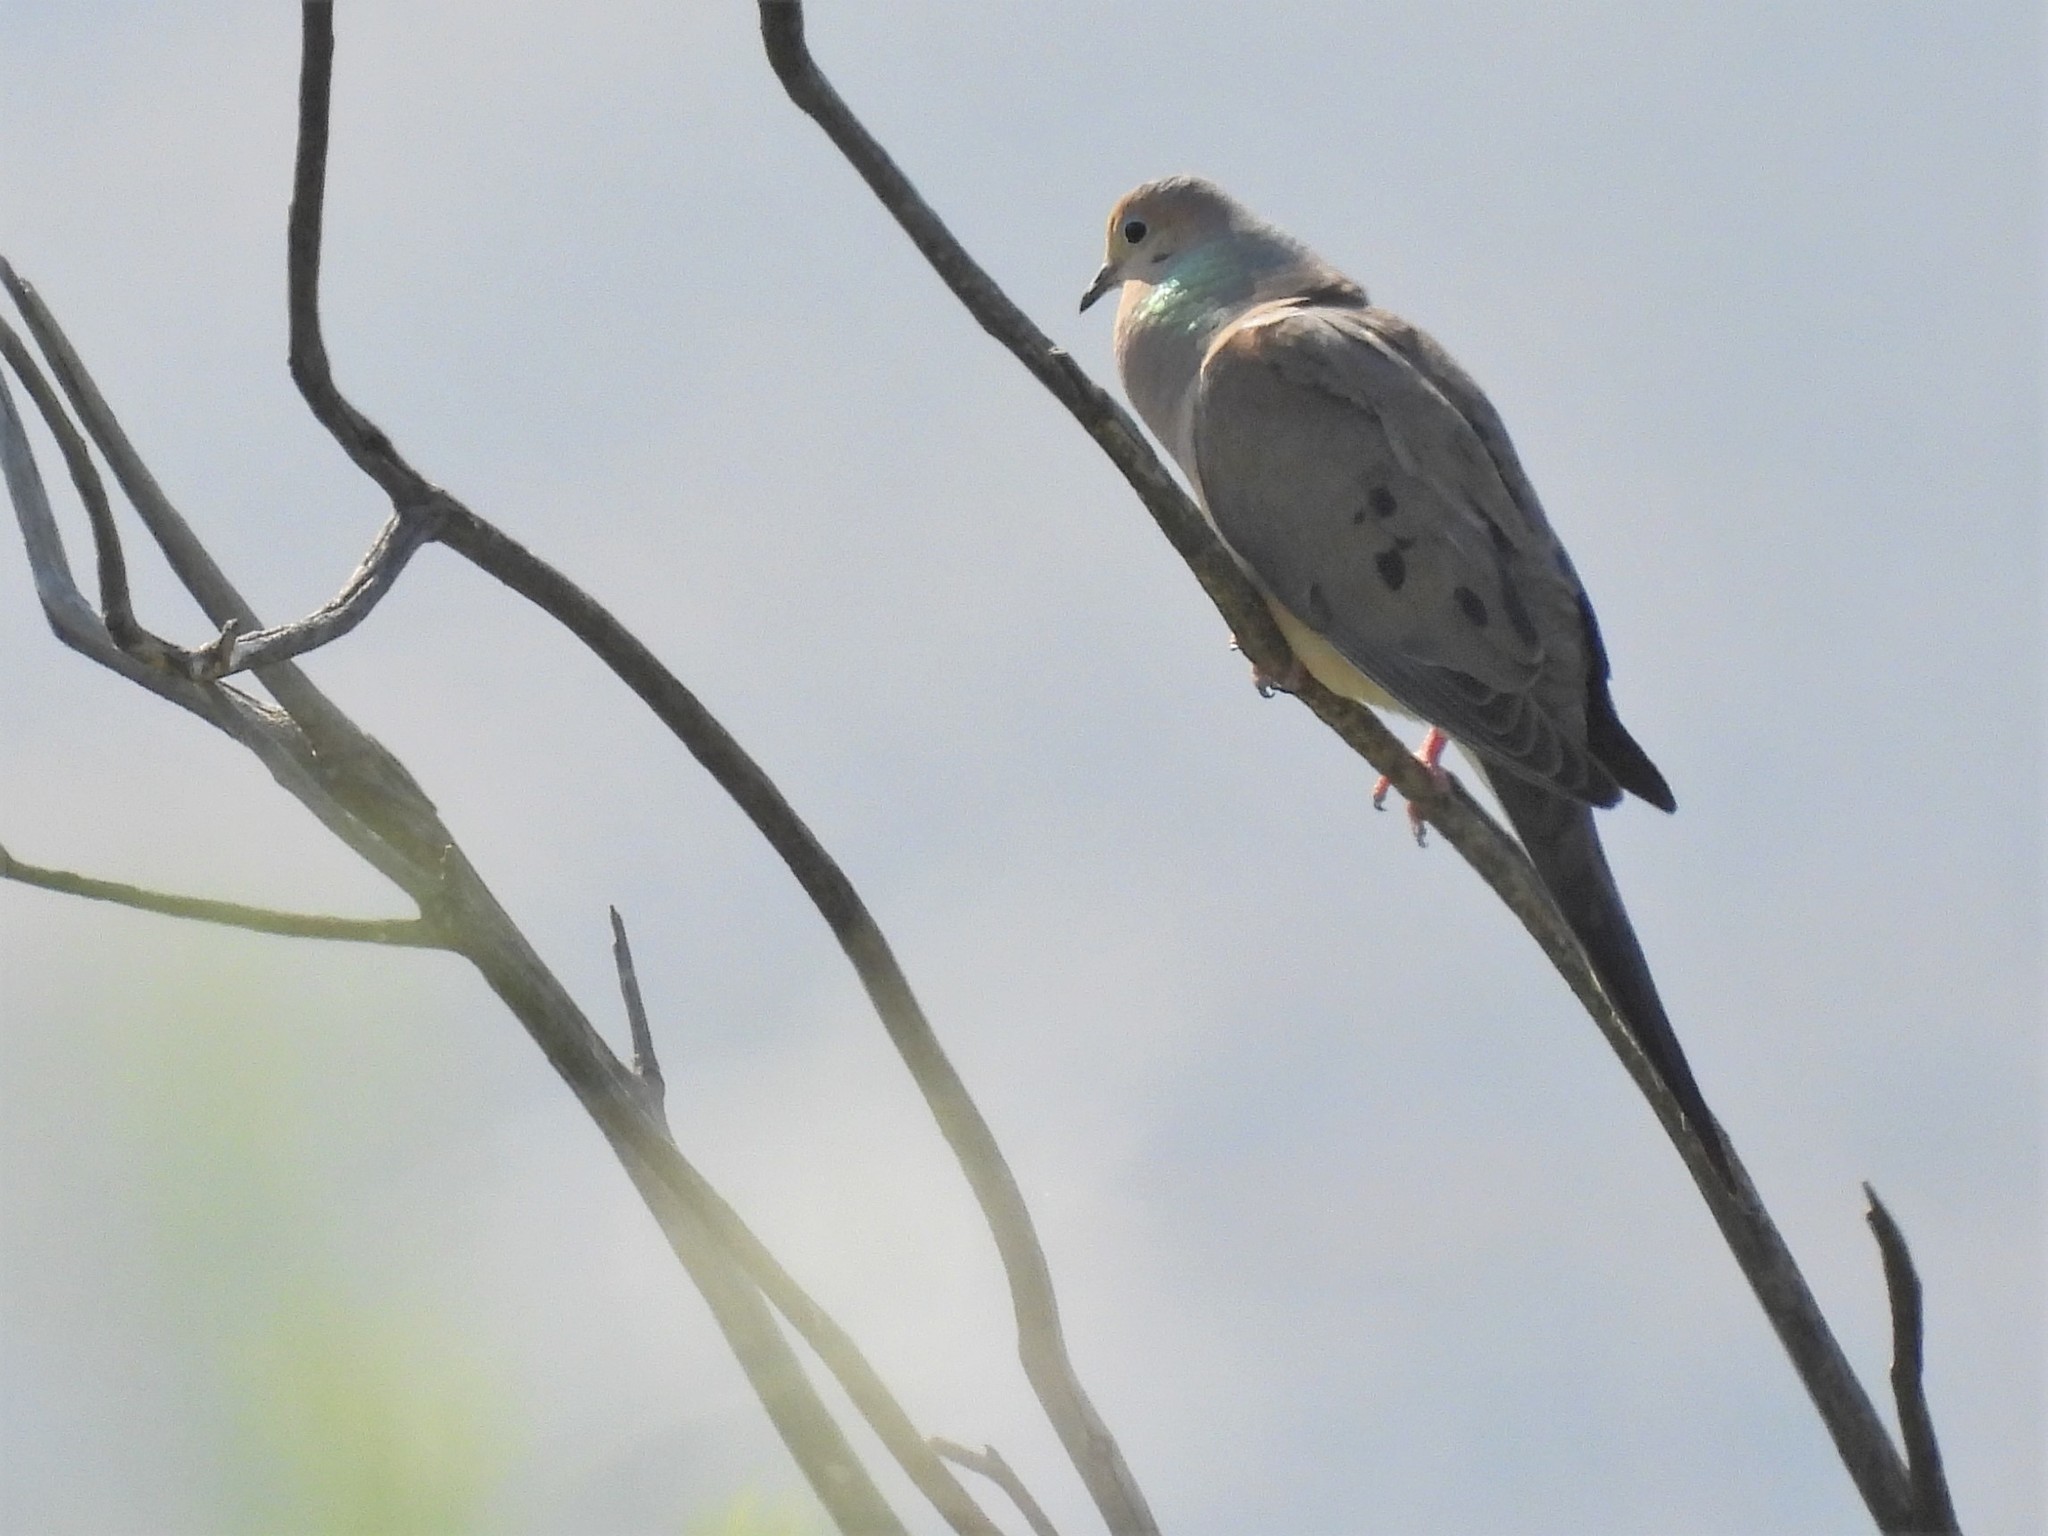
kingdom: Animalia
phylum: Chordata
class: Aves
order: Columbiformes
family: Columbidae
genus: Zenaida
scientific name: Zenaida macroura
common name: Mourning dove
